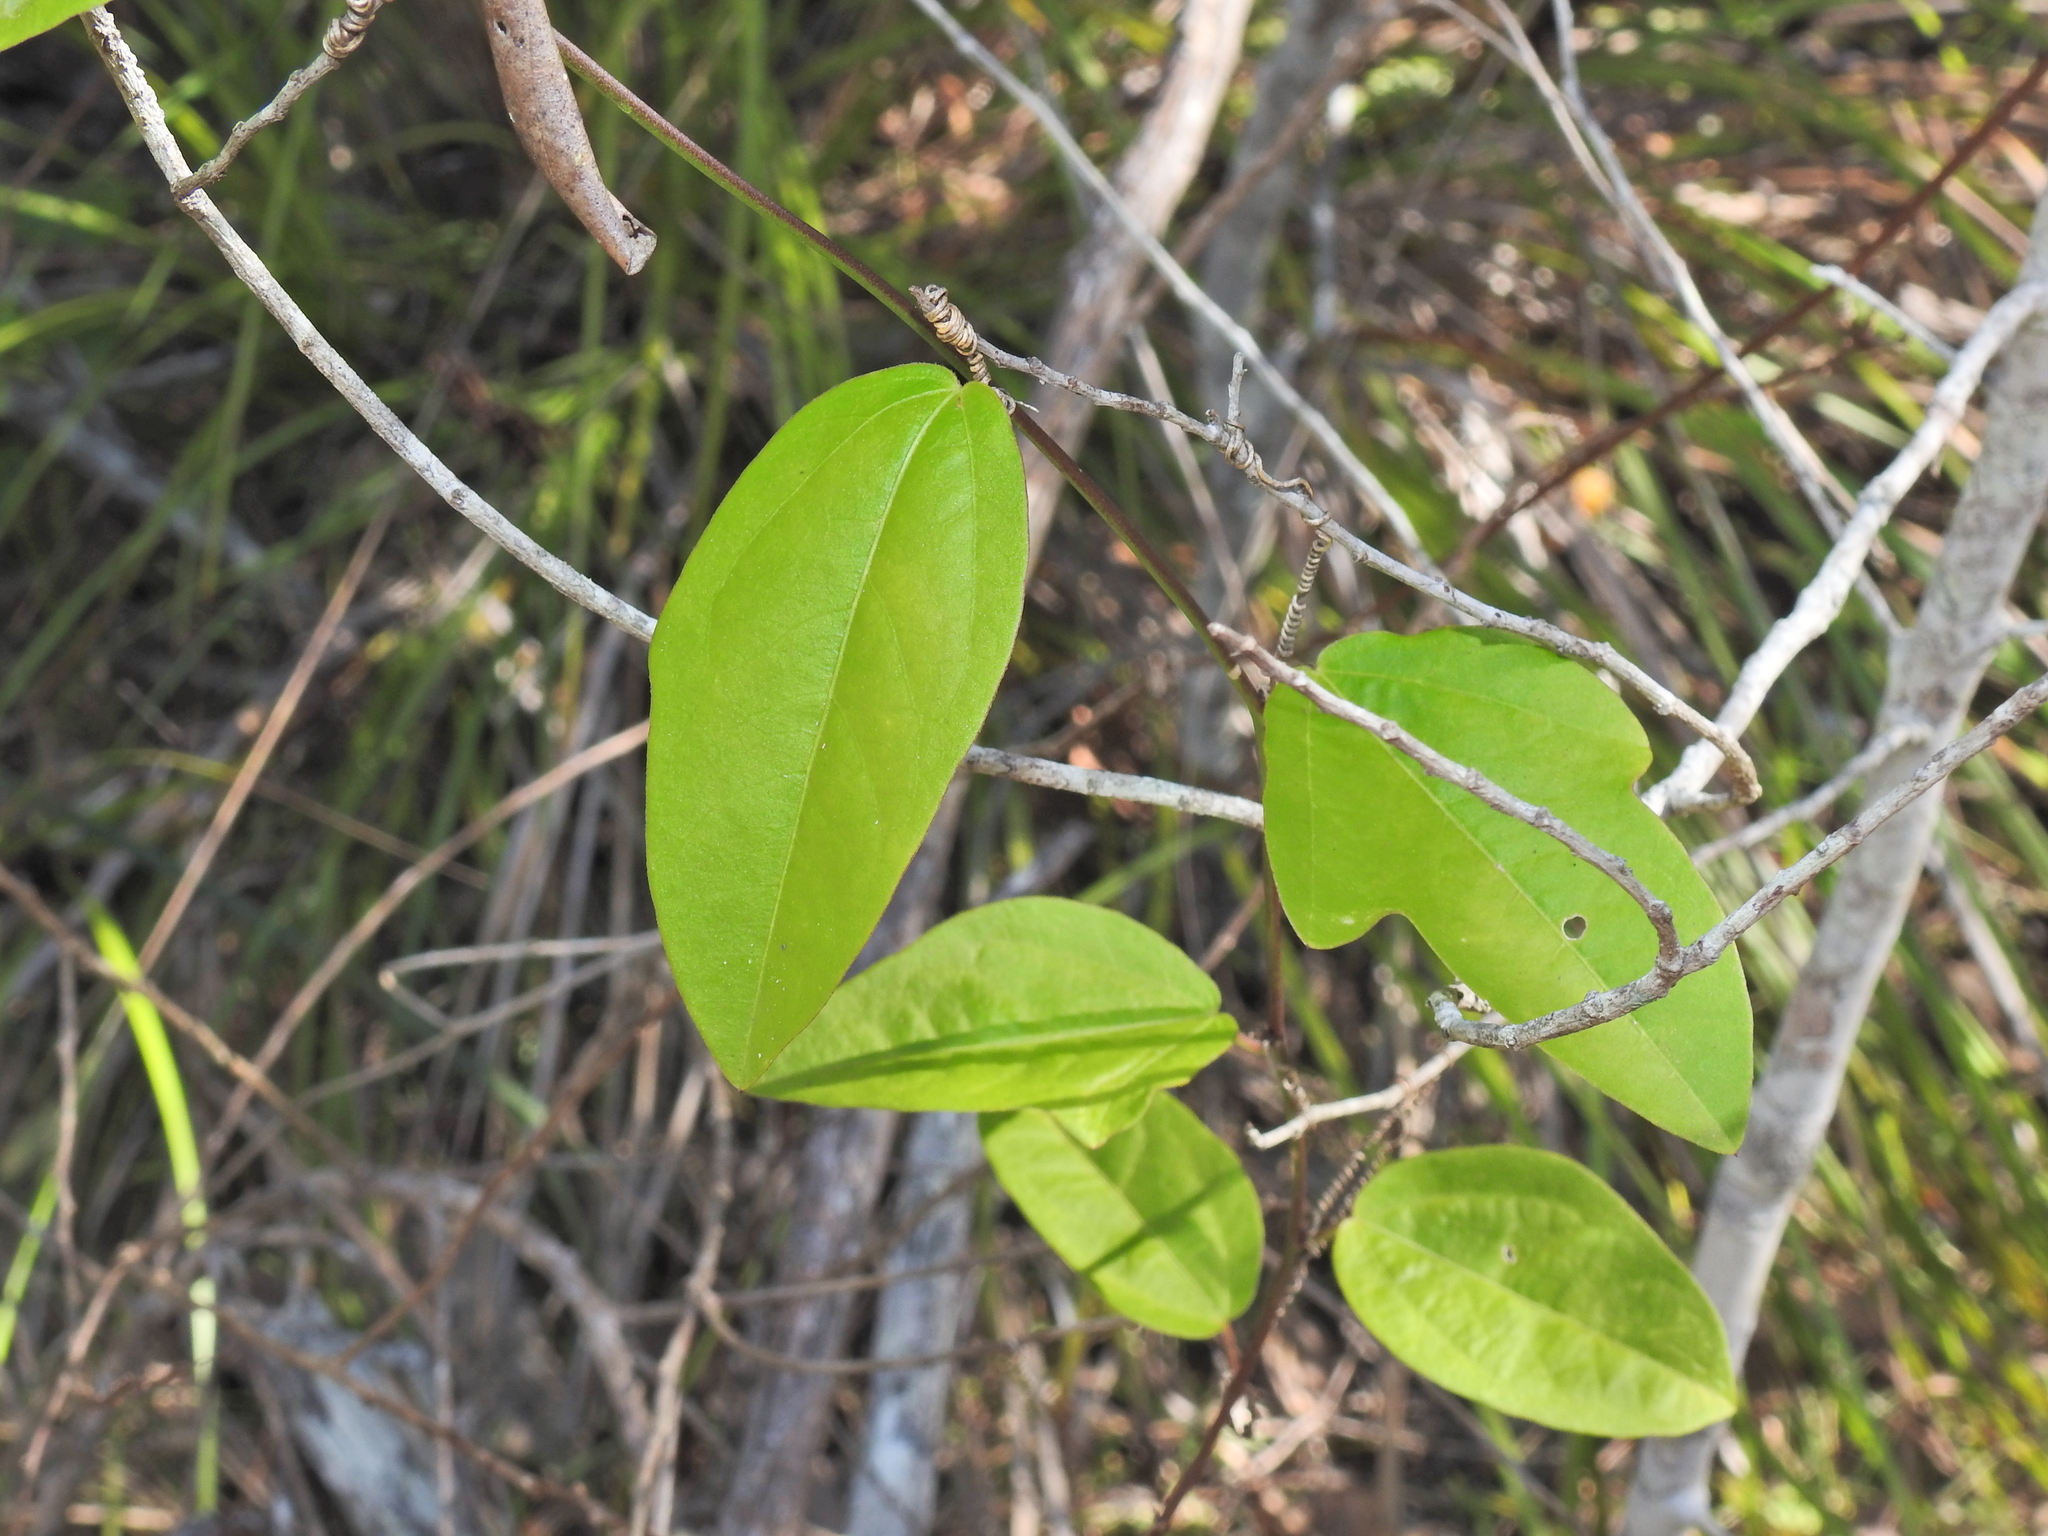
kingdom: Plantae
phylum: Tracheophyta
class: Magnoliopsida
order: Malpighiales
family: Passifloraceae
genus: Passiflora
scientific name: Passiflora pallida
